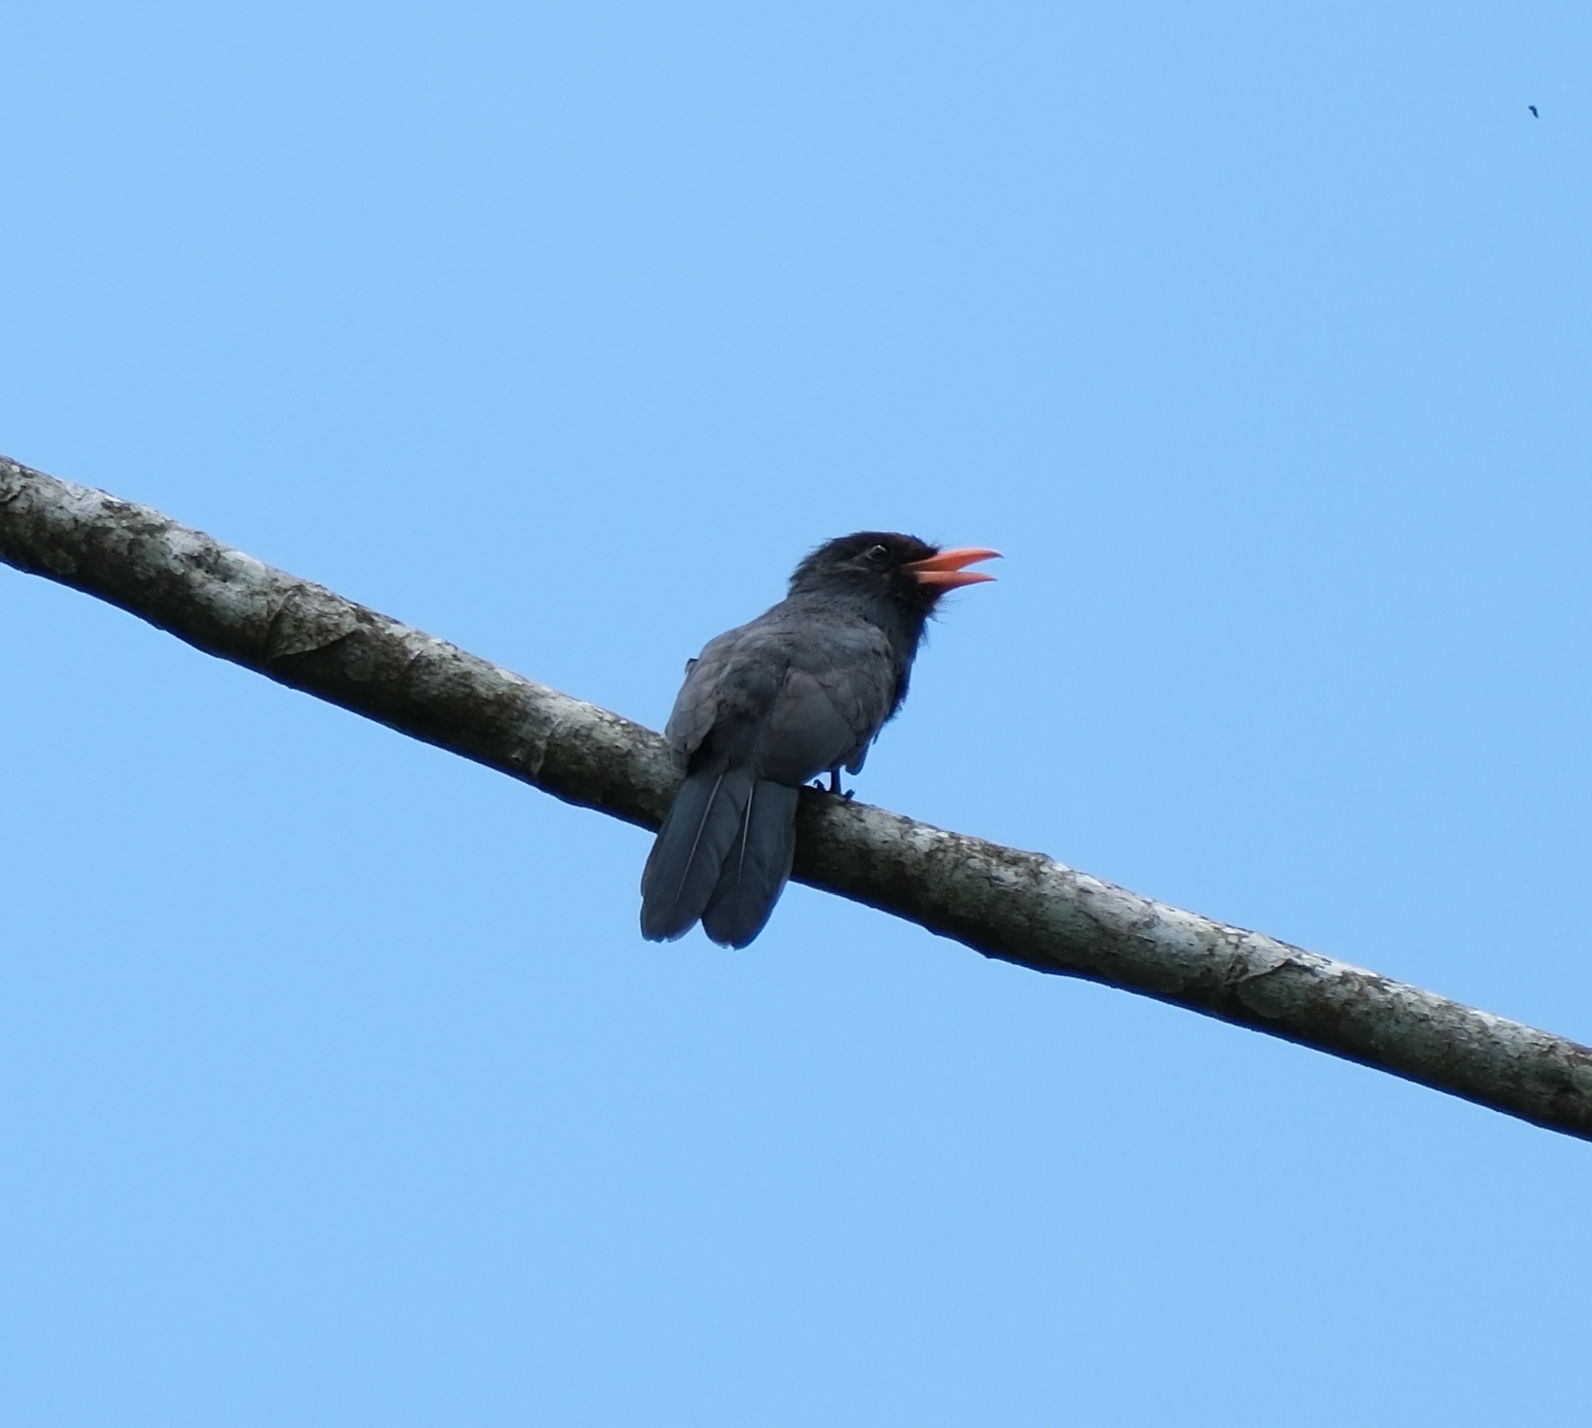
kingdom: Animalia
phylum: Chordata
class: Aves
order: Piciformes
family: Bucconidae
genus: Monasa
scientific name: Monasa nigrifrons
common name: Black-fronted nunbird
